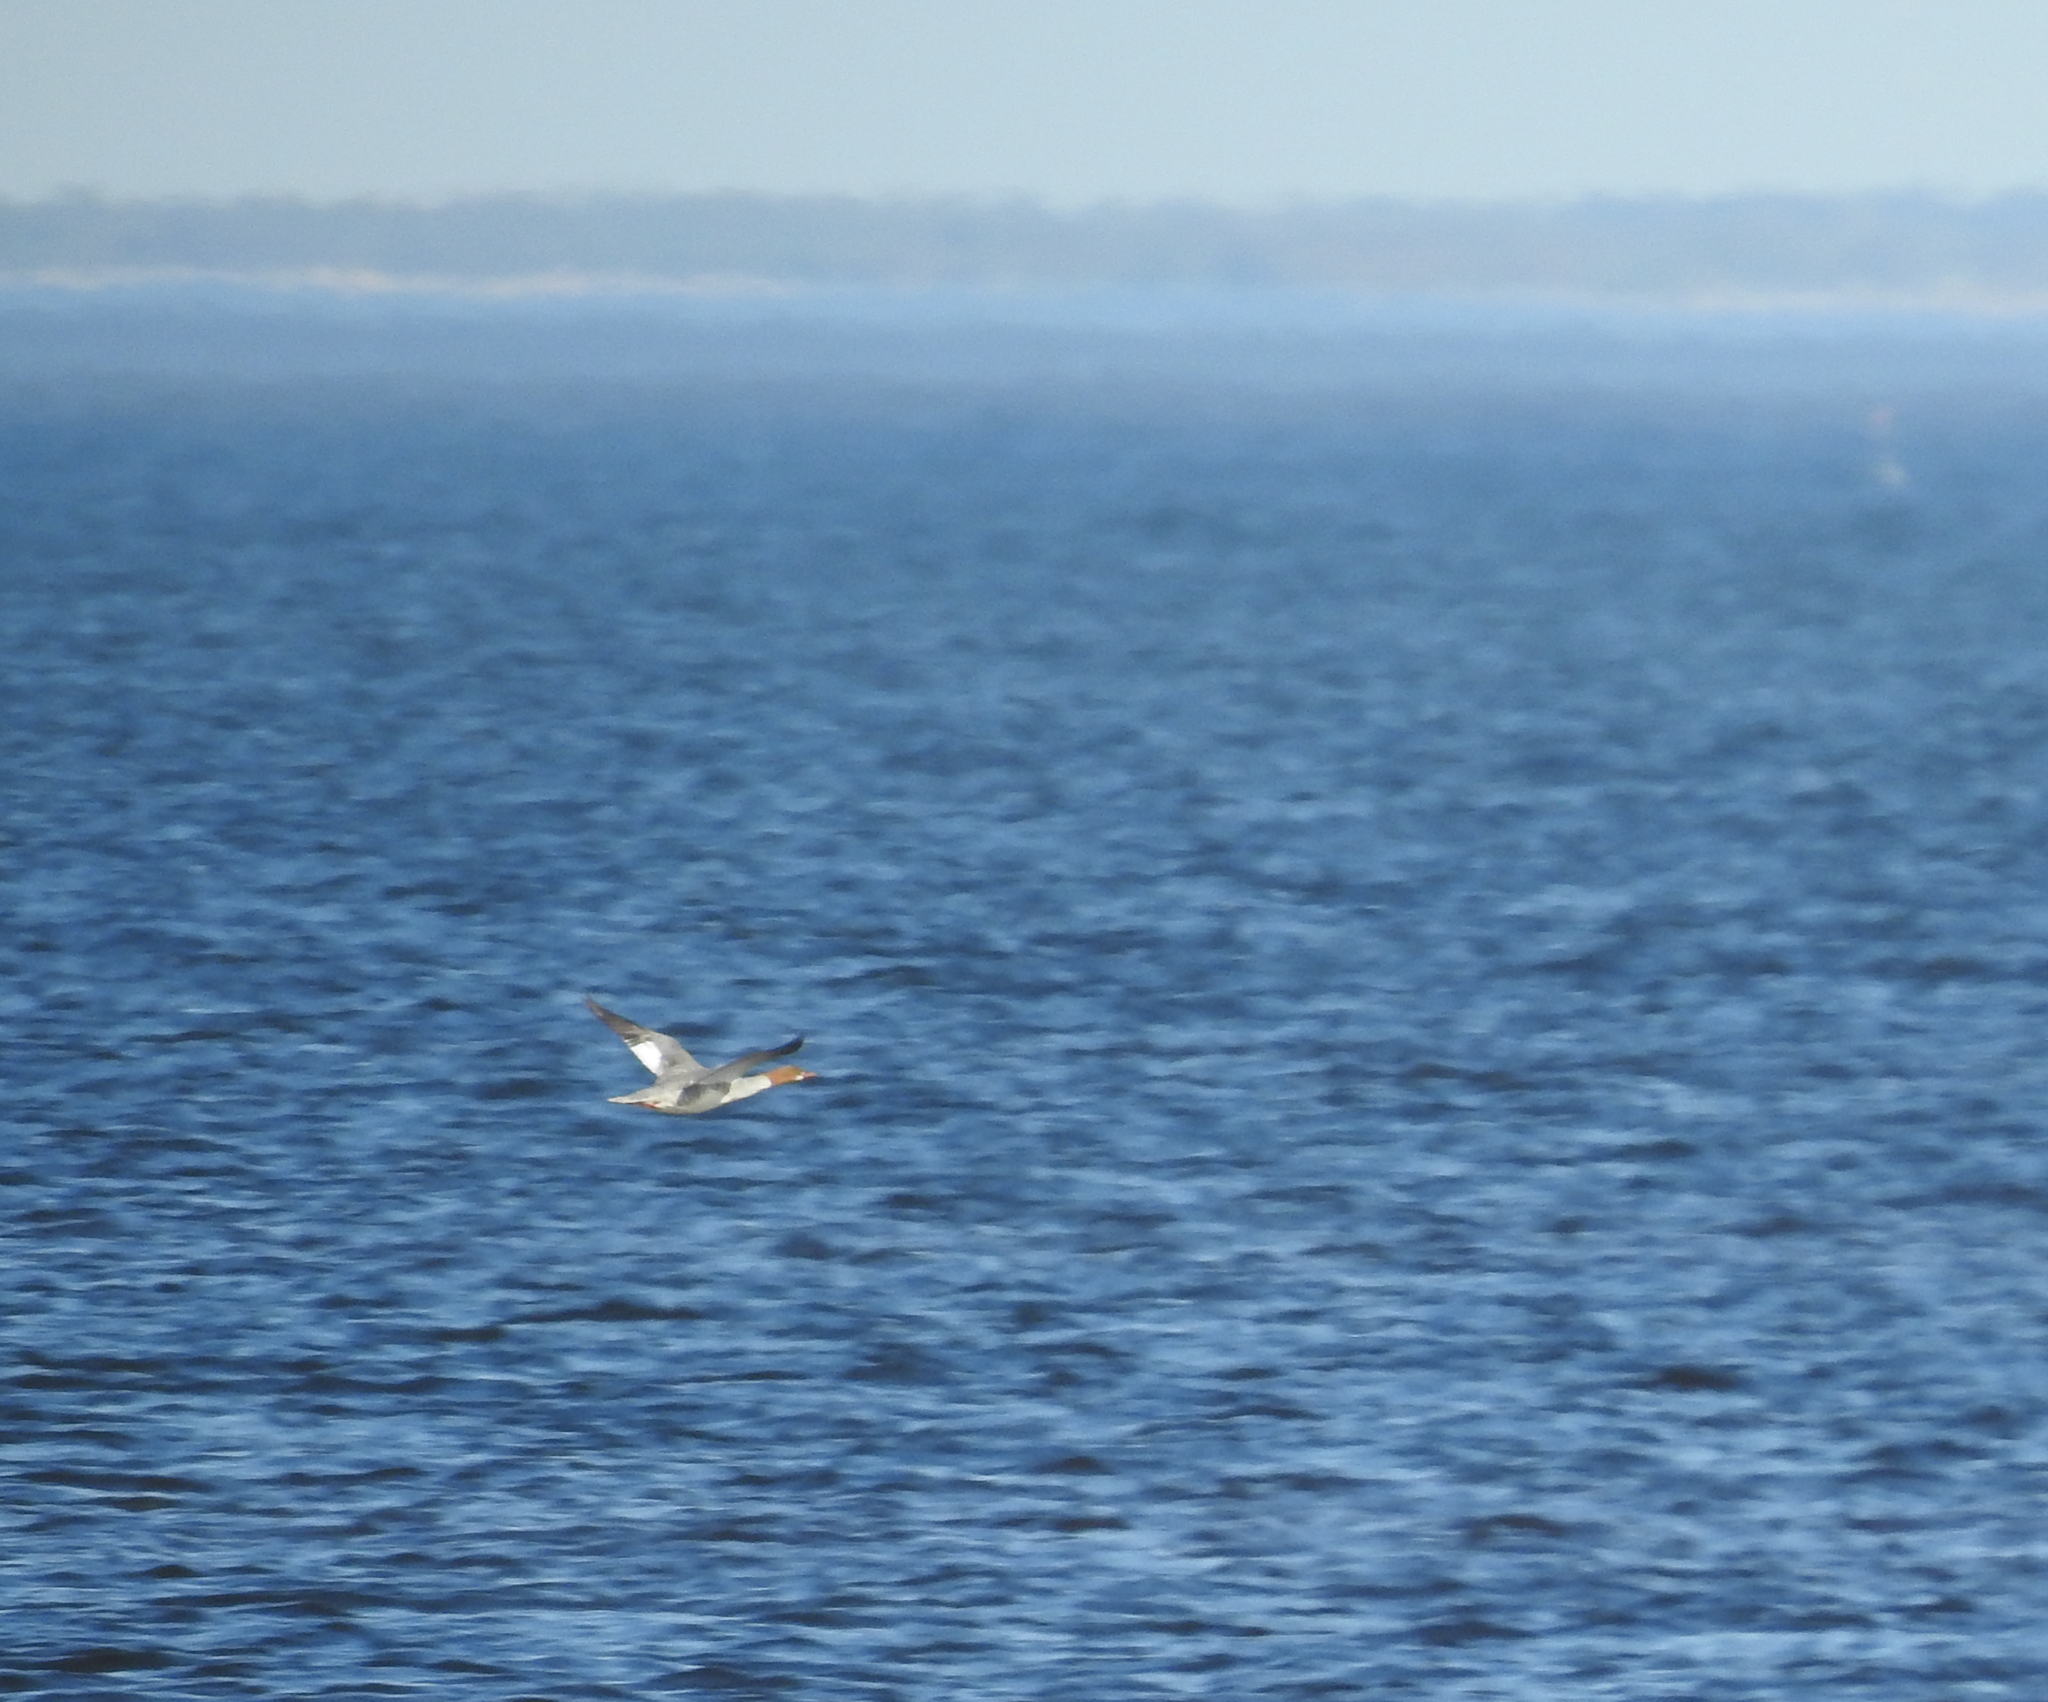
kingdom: Animalia
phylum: Chordata
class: Aves
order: Anseriformes
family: Anatidae
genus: Mergus
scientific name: Mergus merganser
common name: Common merganser
